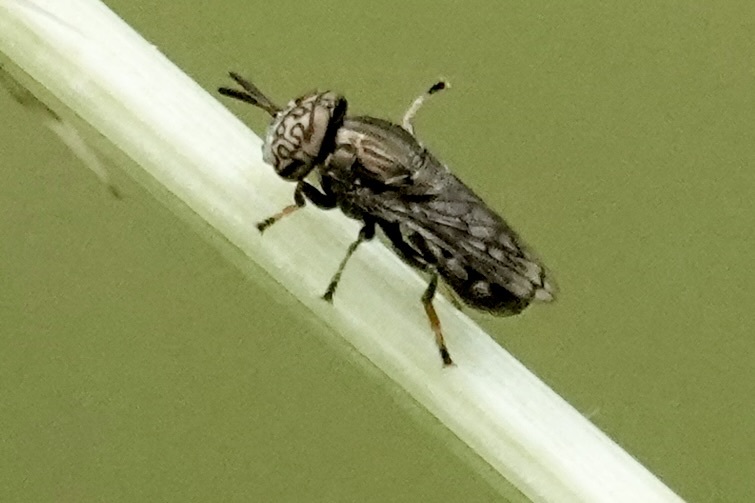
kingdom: Animalia
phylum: Arthropoda
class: Insecta
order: Diptera
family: Syrphidae
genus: Orthonevra
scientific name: Orthonevra nitida
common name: Wavy mucksucker
